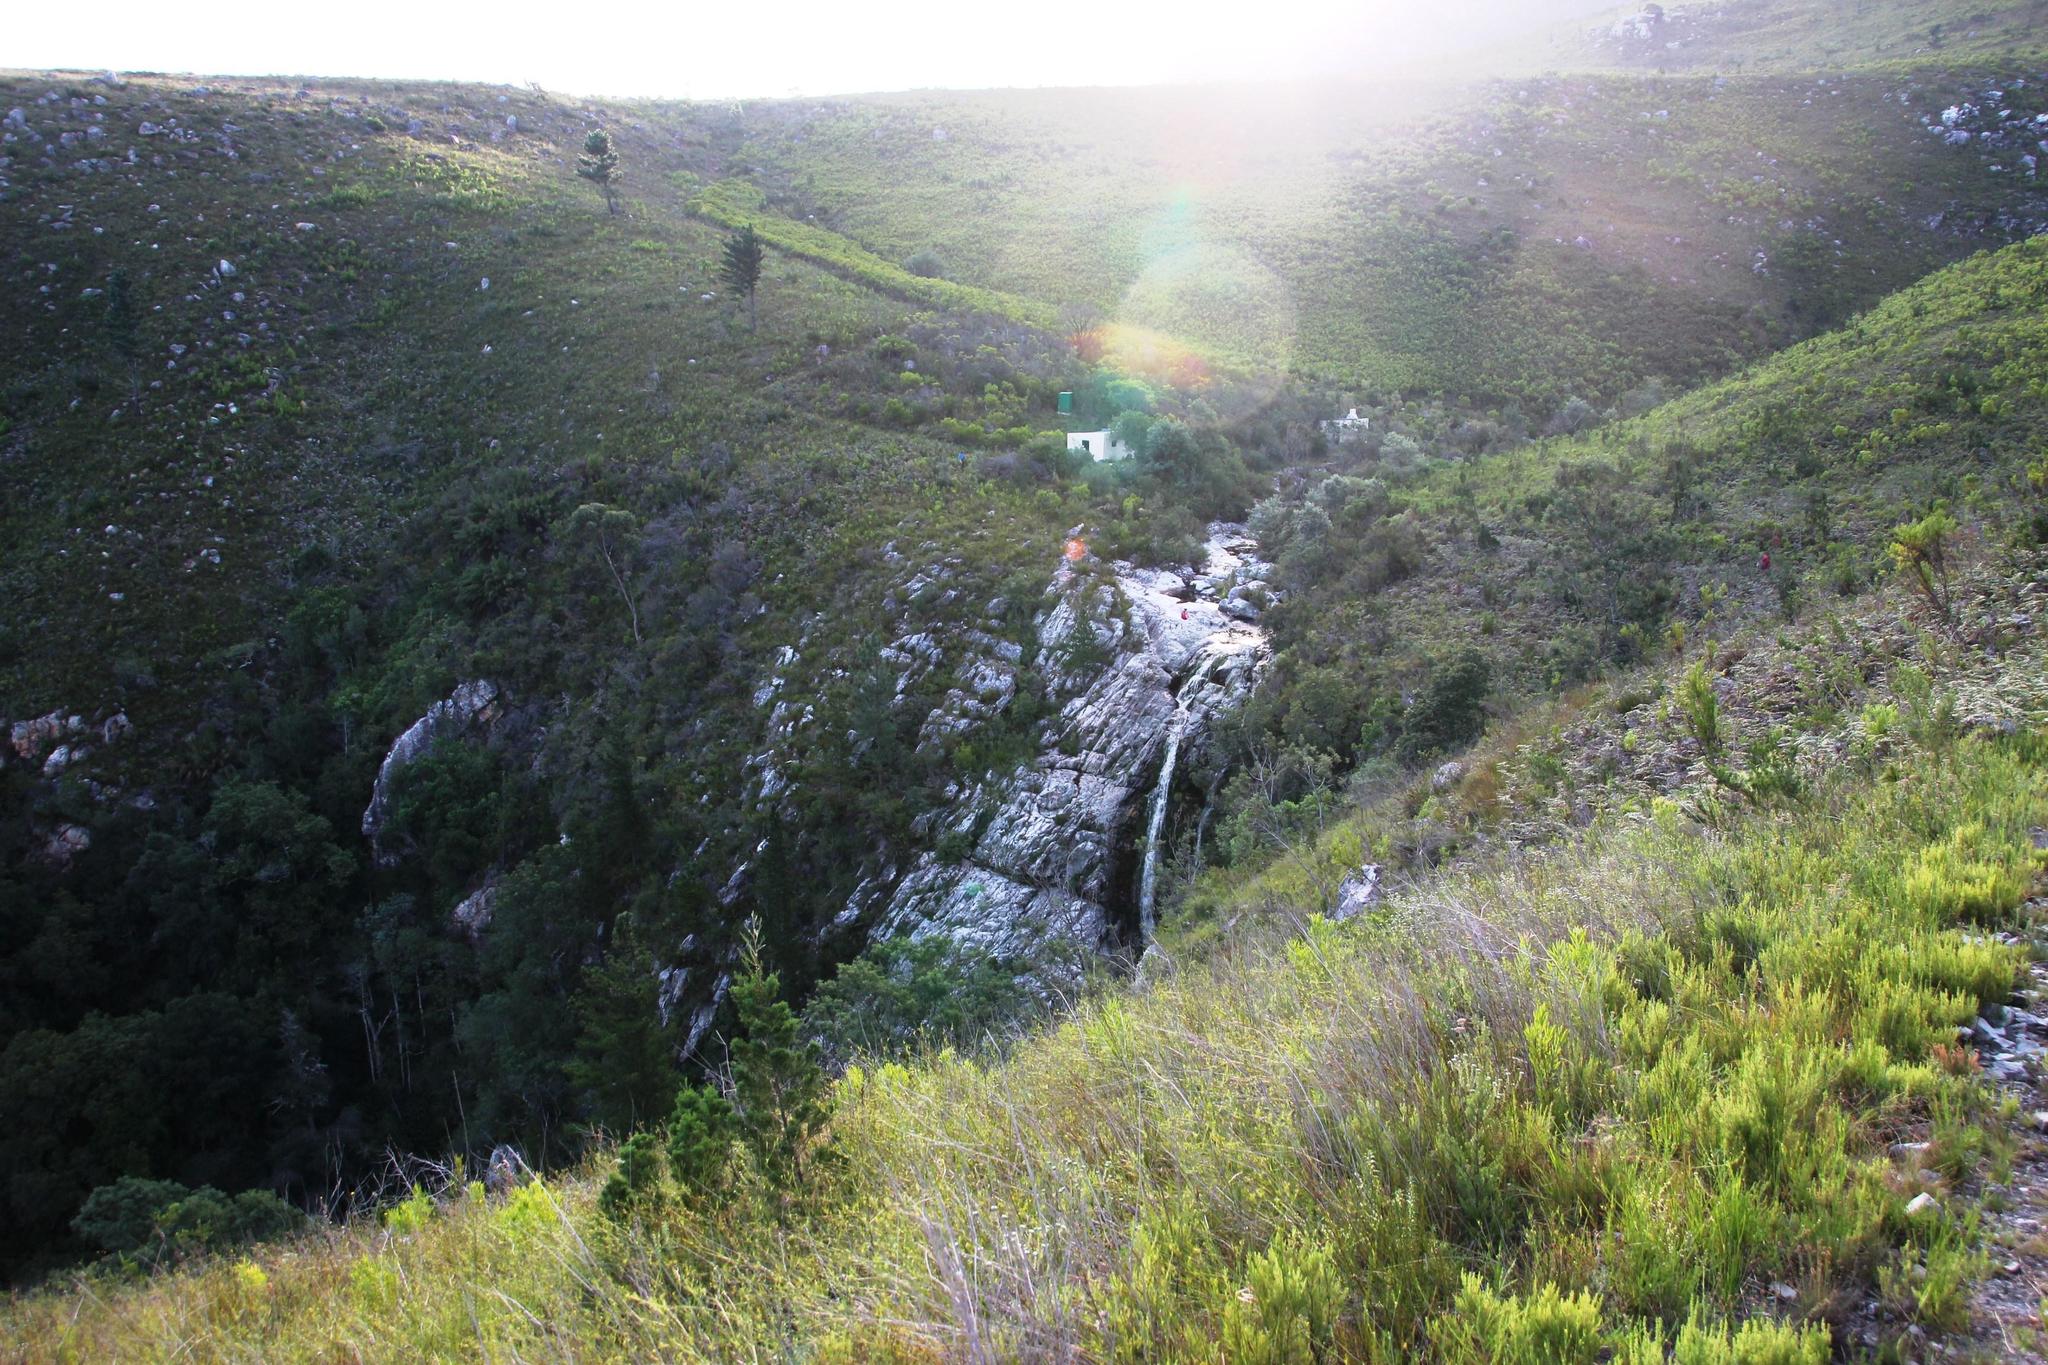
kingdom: Plantae
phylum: Tracheophyta
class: Magnoliopsida
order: Fabales
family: Fabaceae
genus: Acacia
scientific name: Acacia mearnsii
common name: Black wattle
